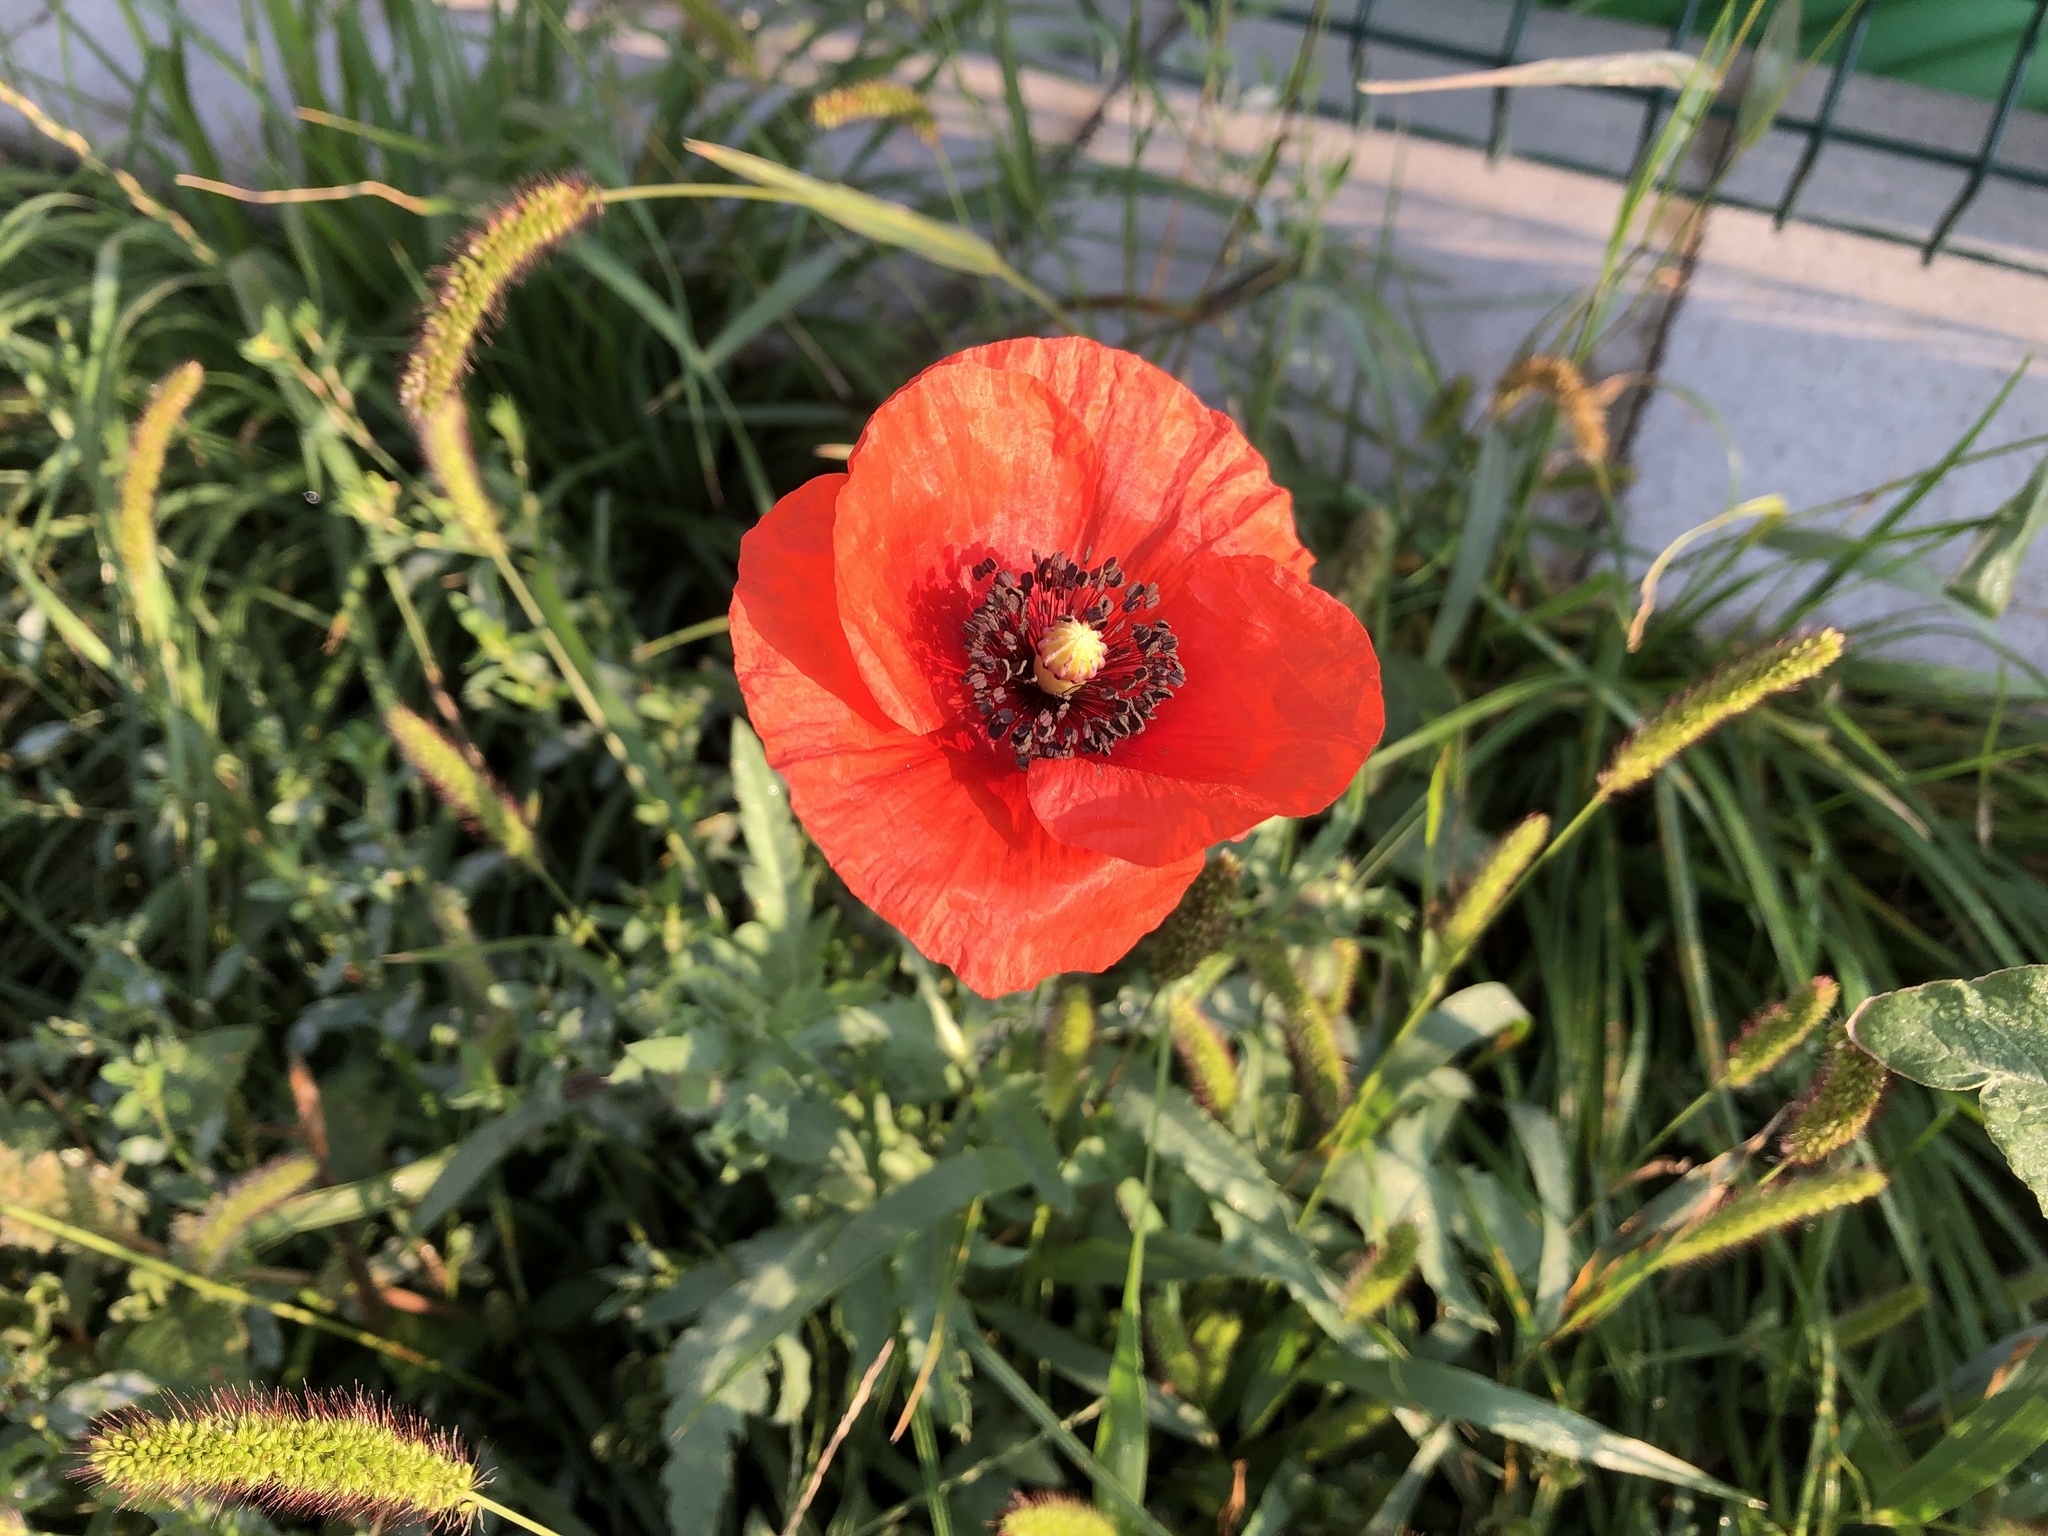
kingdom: Plantae
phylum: Tracheophyta
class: Magnoliopsida
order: Ranunculales
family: Papaveraceae
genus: Papaver
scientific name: Papaver rhoeas
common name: Corn poppy
